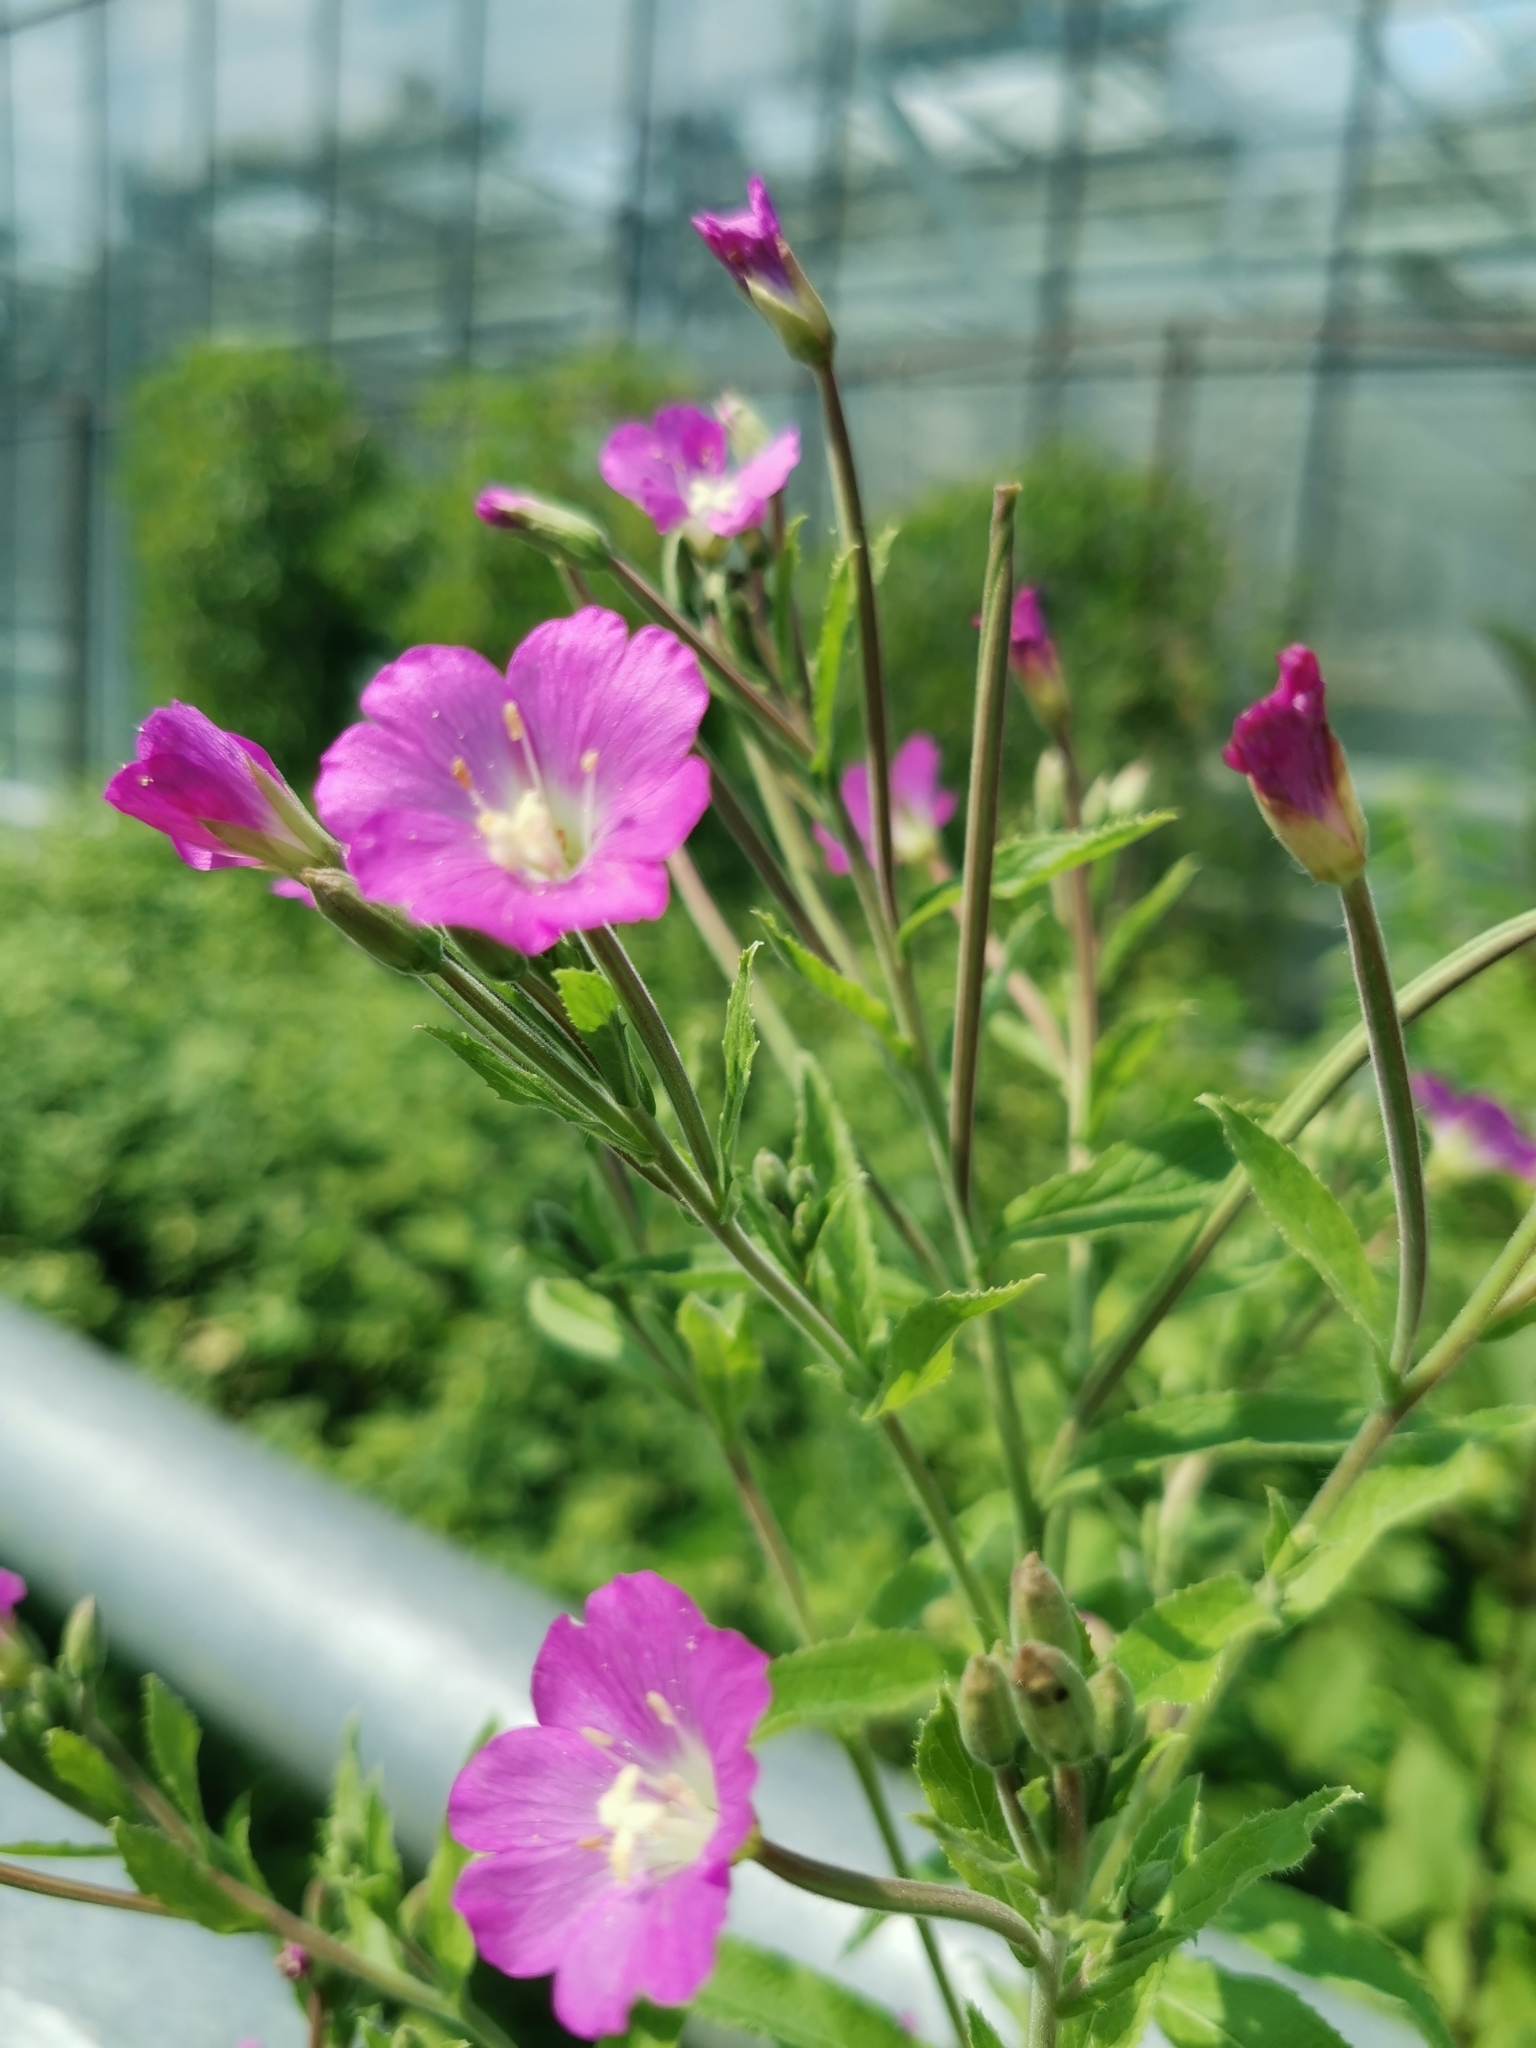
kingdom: Plantae
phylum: Tracheophyta
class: Magnoliopsida
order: Myrtales
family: Onagraceae
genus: Epilobium
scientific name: Epilobium hirsutum
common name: Great willowherb
